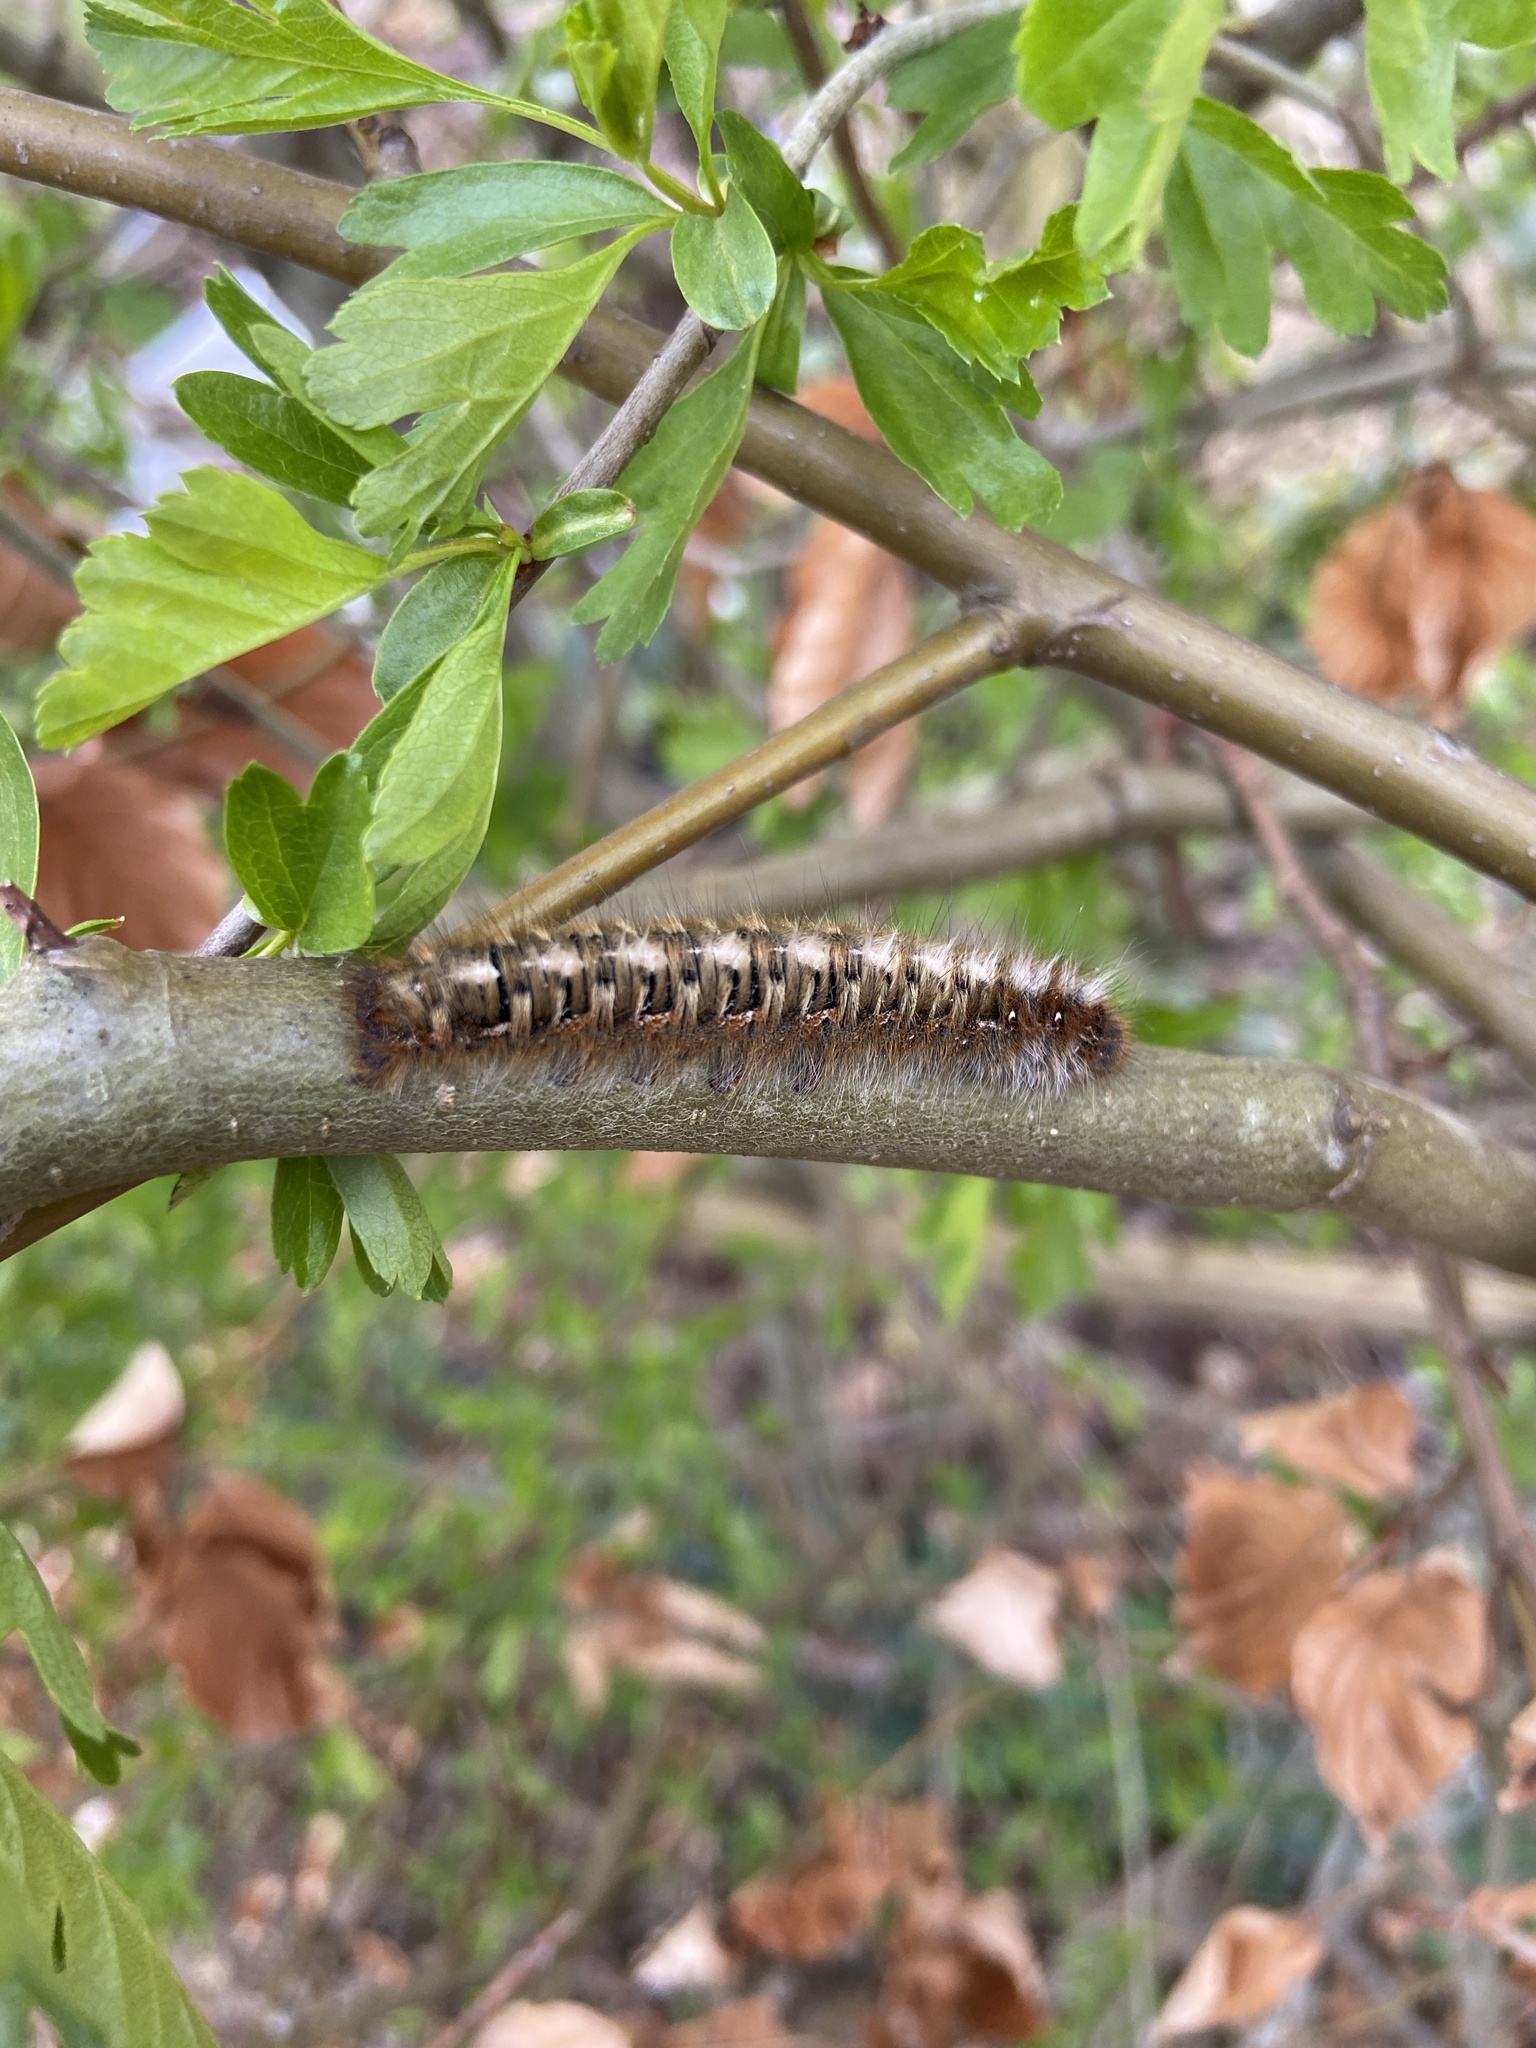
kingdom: Animalia
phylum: Arthropoda
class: Insecta
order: Lepidoptera
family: Lasiocampidae
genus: Lasiocampa
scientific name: Lasiocampa quercus
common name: Oak eggar
